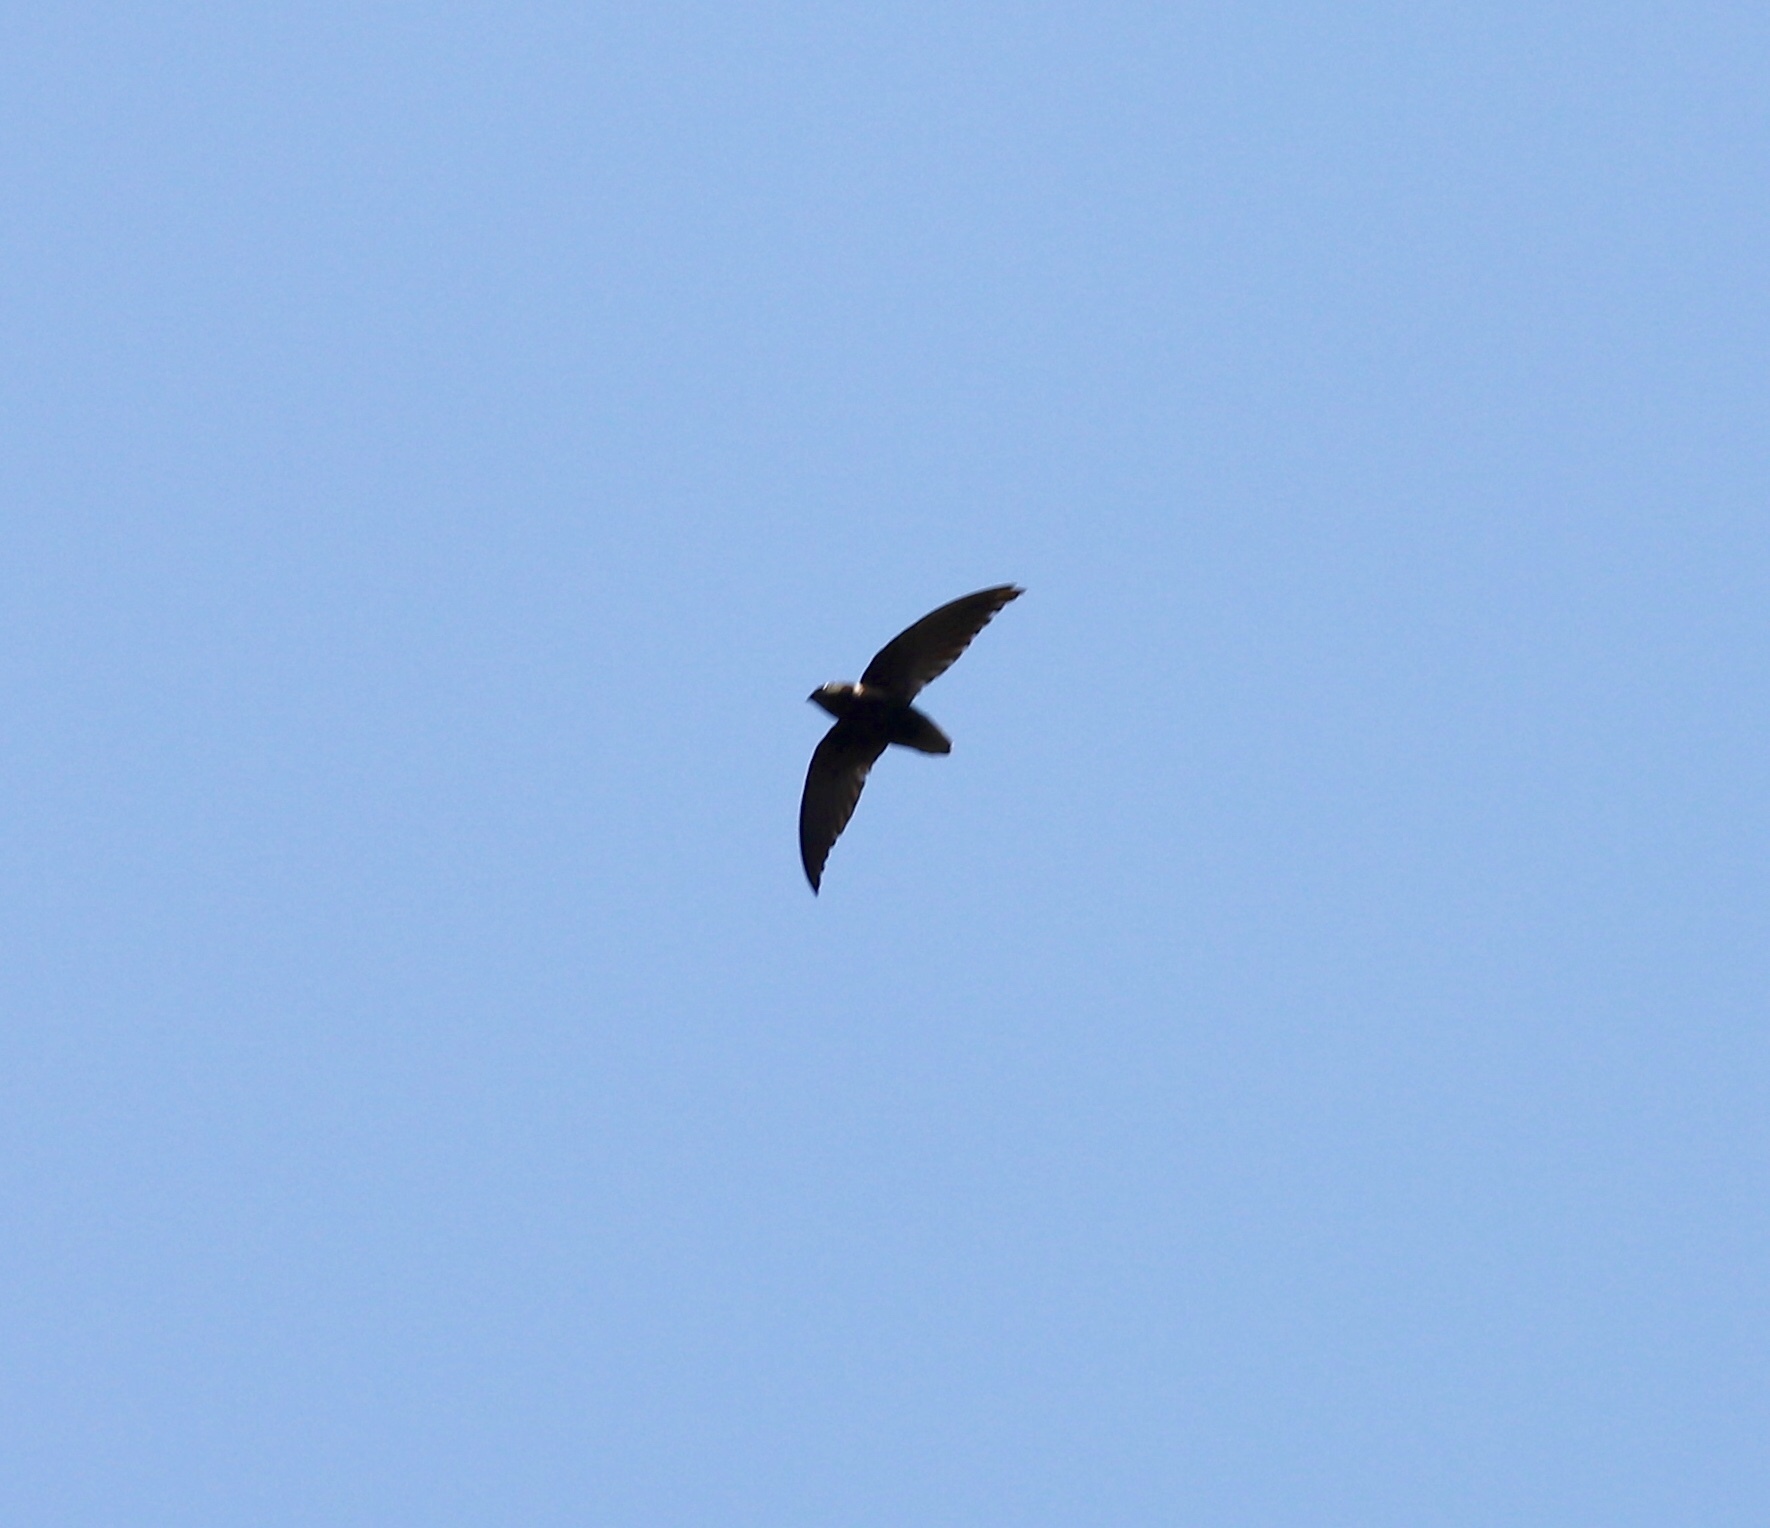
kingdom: Animalia
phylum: Chordata
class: Aves
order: Apodiformes
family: Apodidae
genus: Chaetura
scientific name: Chaetura brachyura
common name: Short-tailed swift
